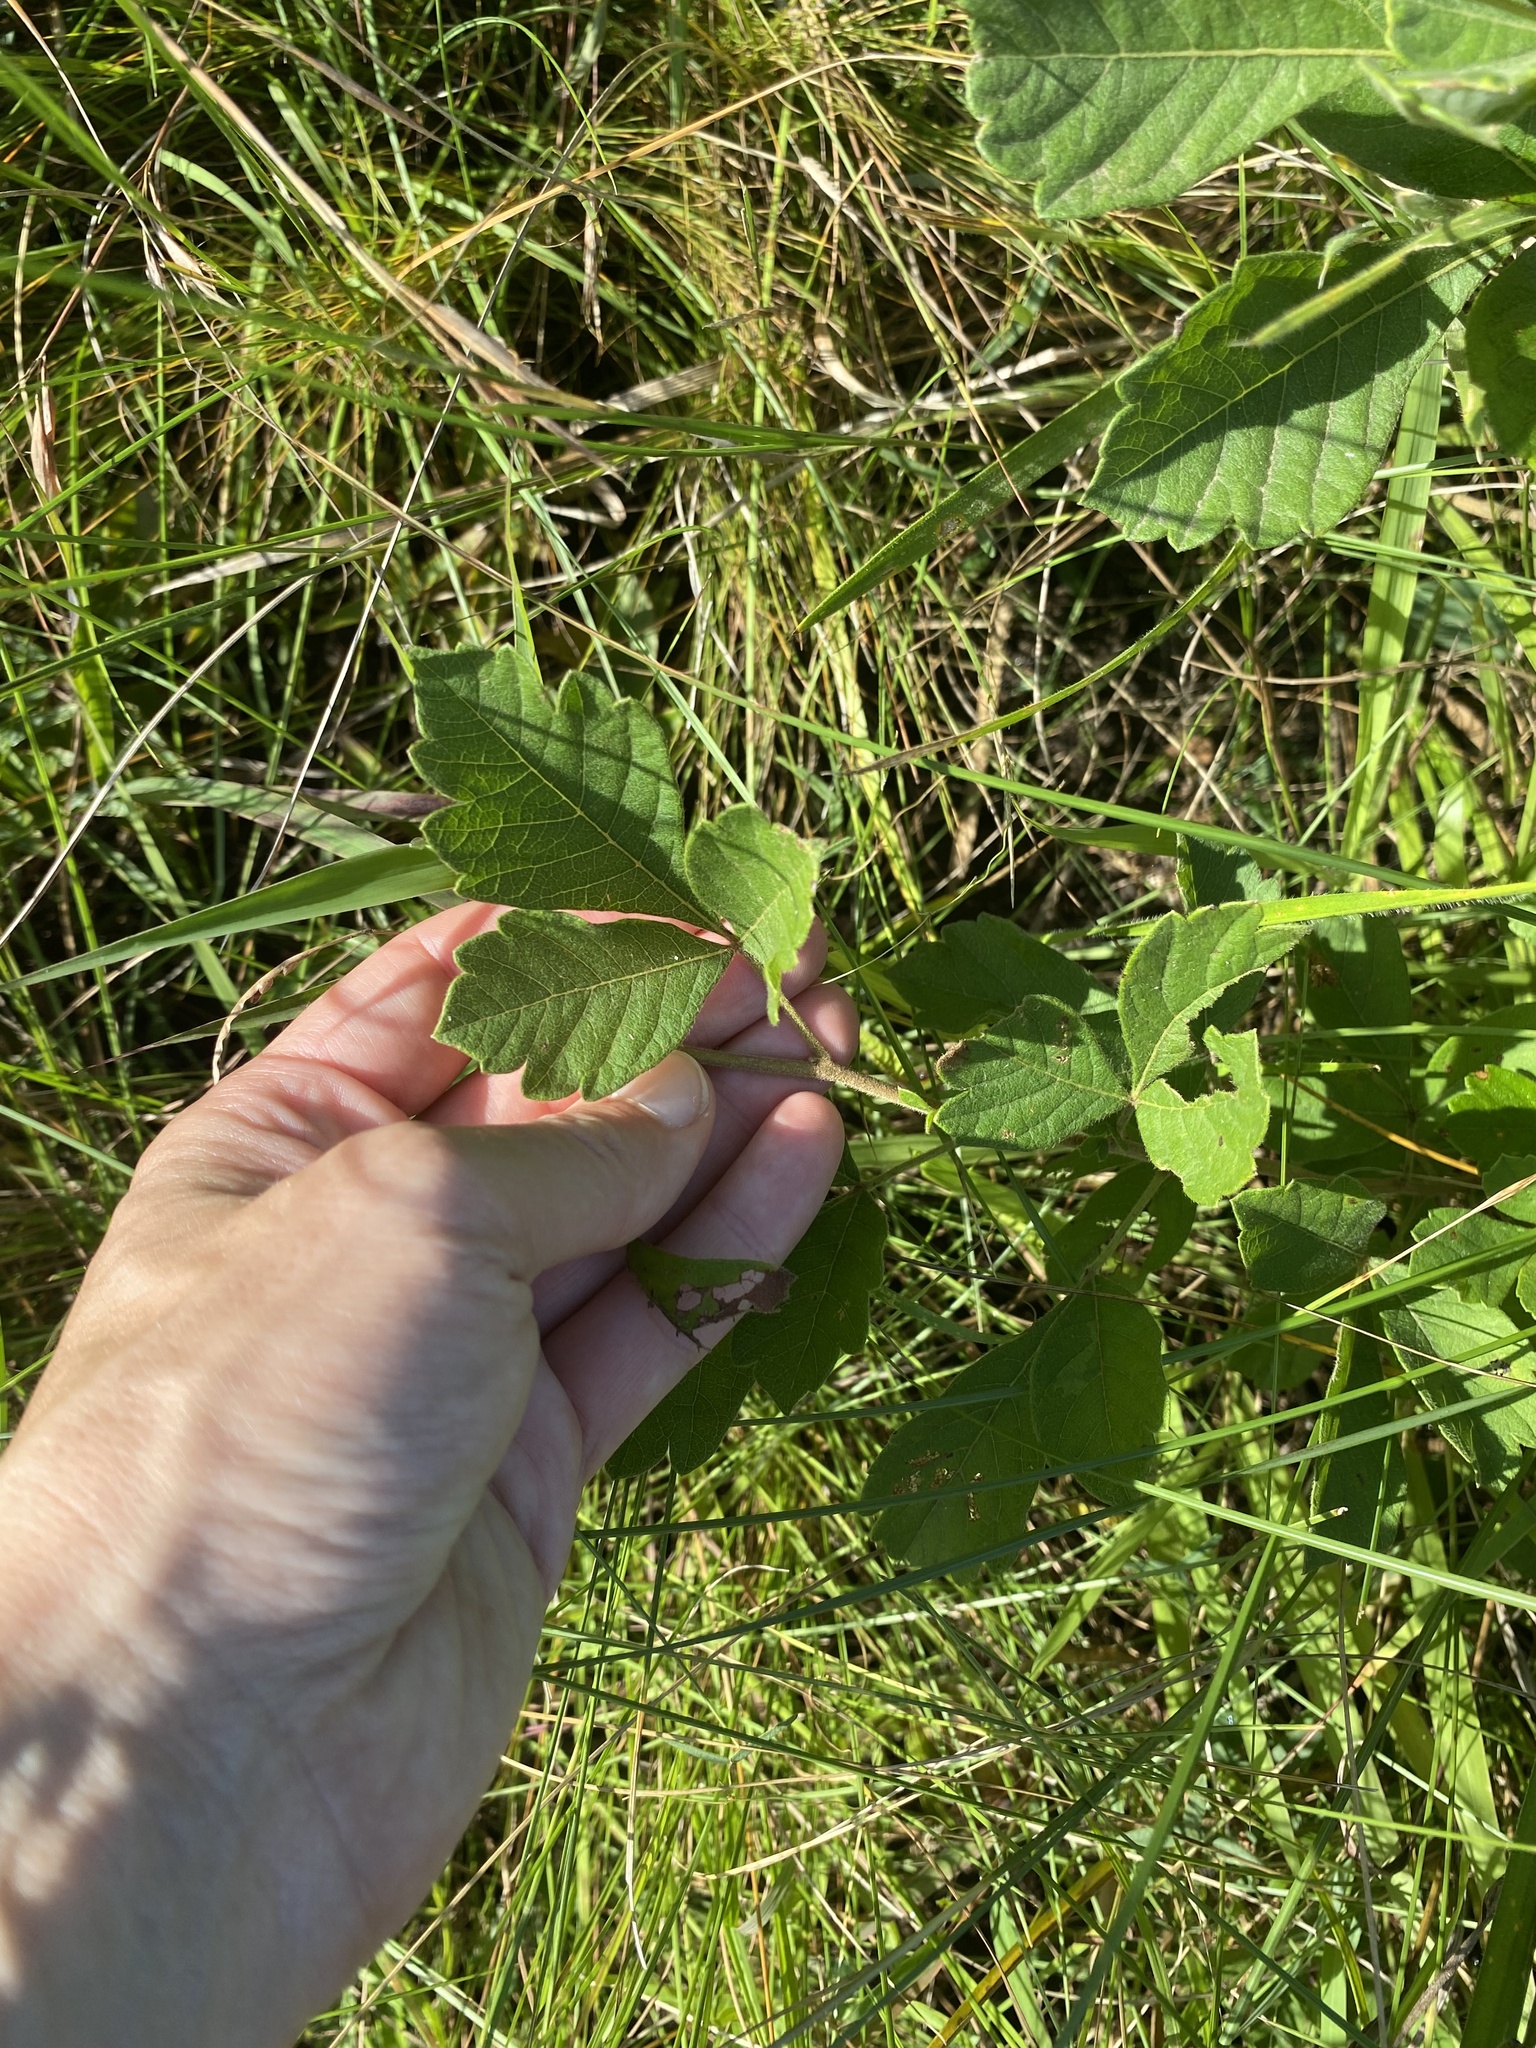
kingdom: Plantae
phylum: Tracheophyta
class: Magnoliopsida
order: Vitales
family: Vitaceae
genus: Rhoicissus
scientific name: Rhoicissus tridentata
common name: Common forest grape
